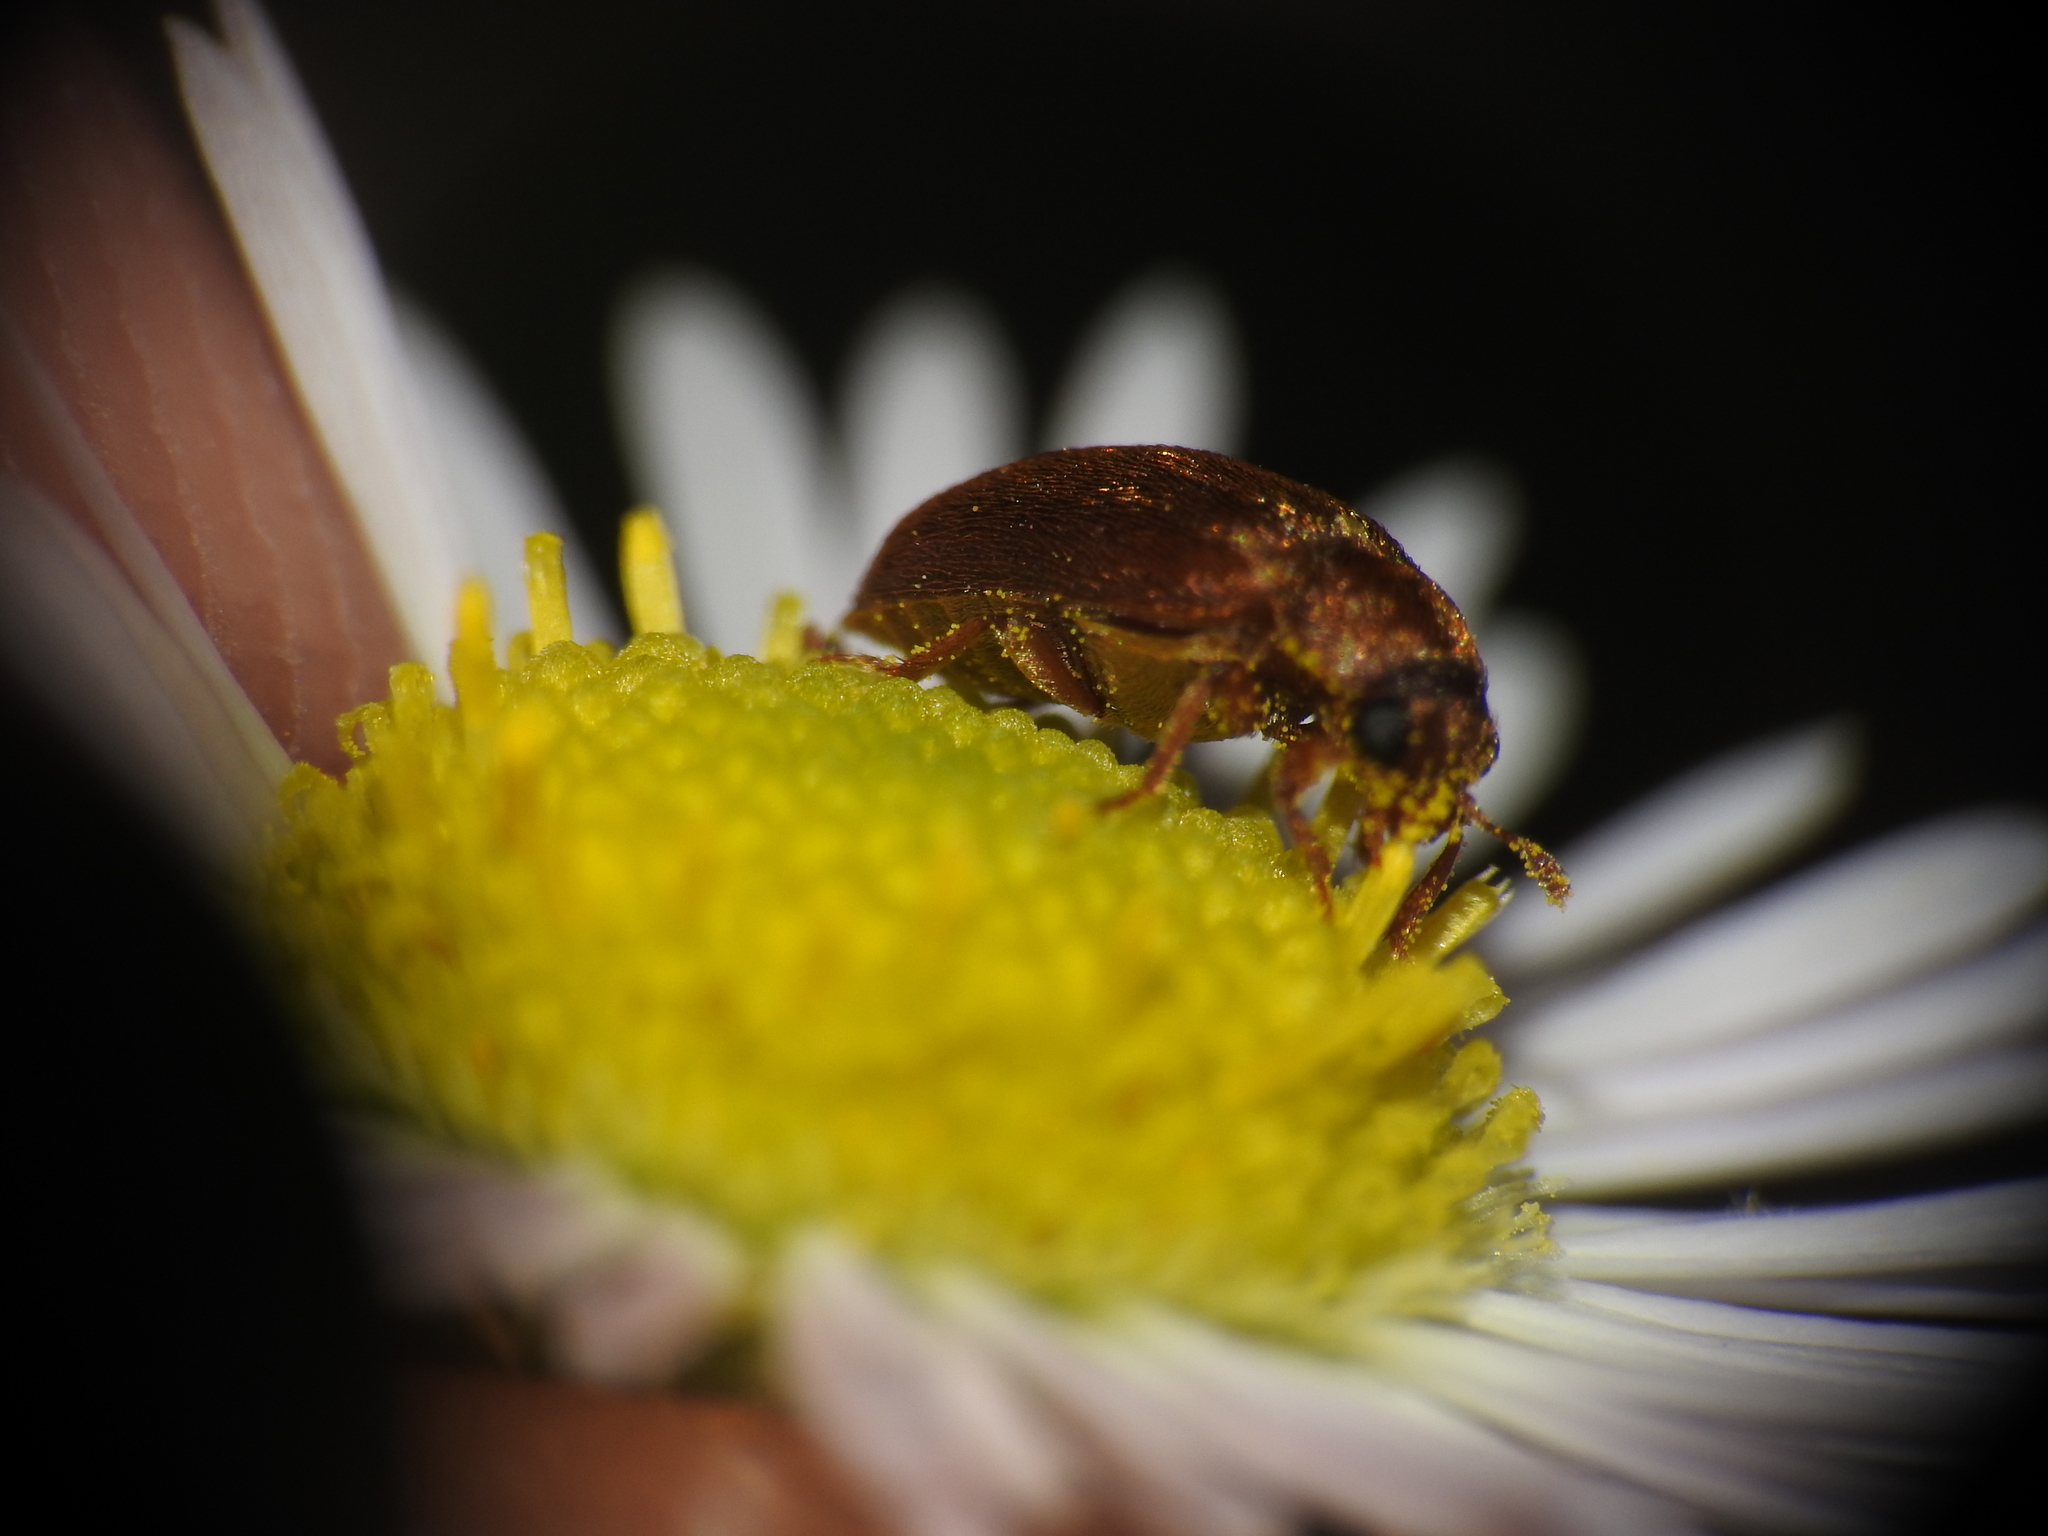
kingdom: Animalia
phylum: Arthropoda
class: Insecta
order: Coleoptera
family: Byturidae
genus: Byturus
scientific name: Byturus unicolor
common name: Raspberry fruitworm beetle
